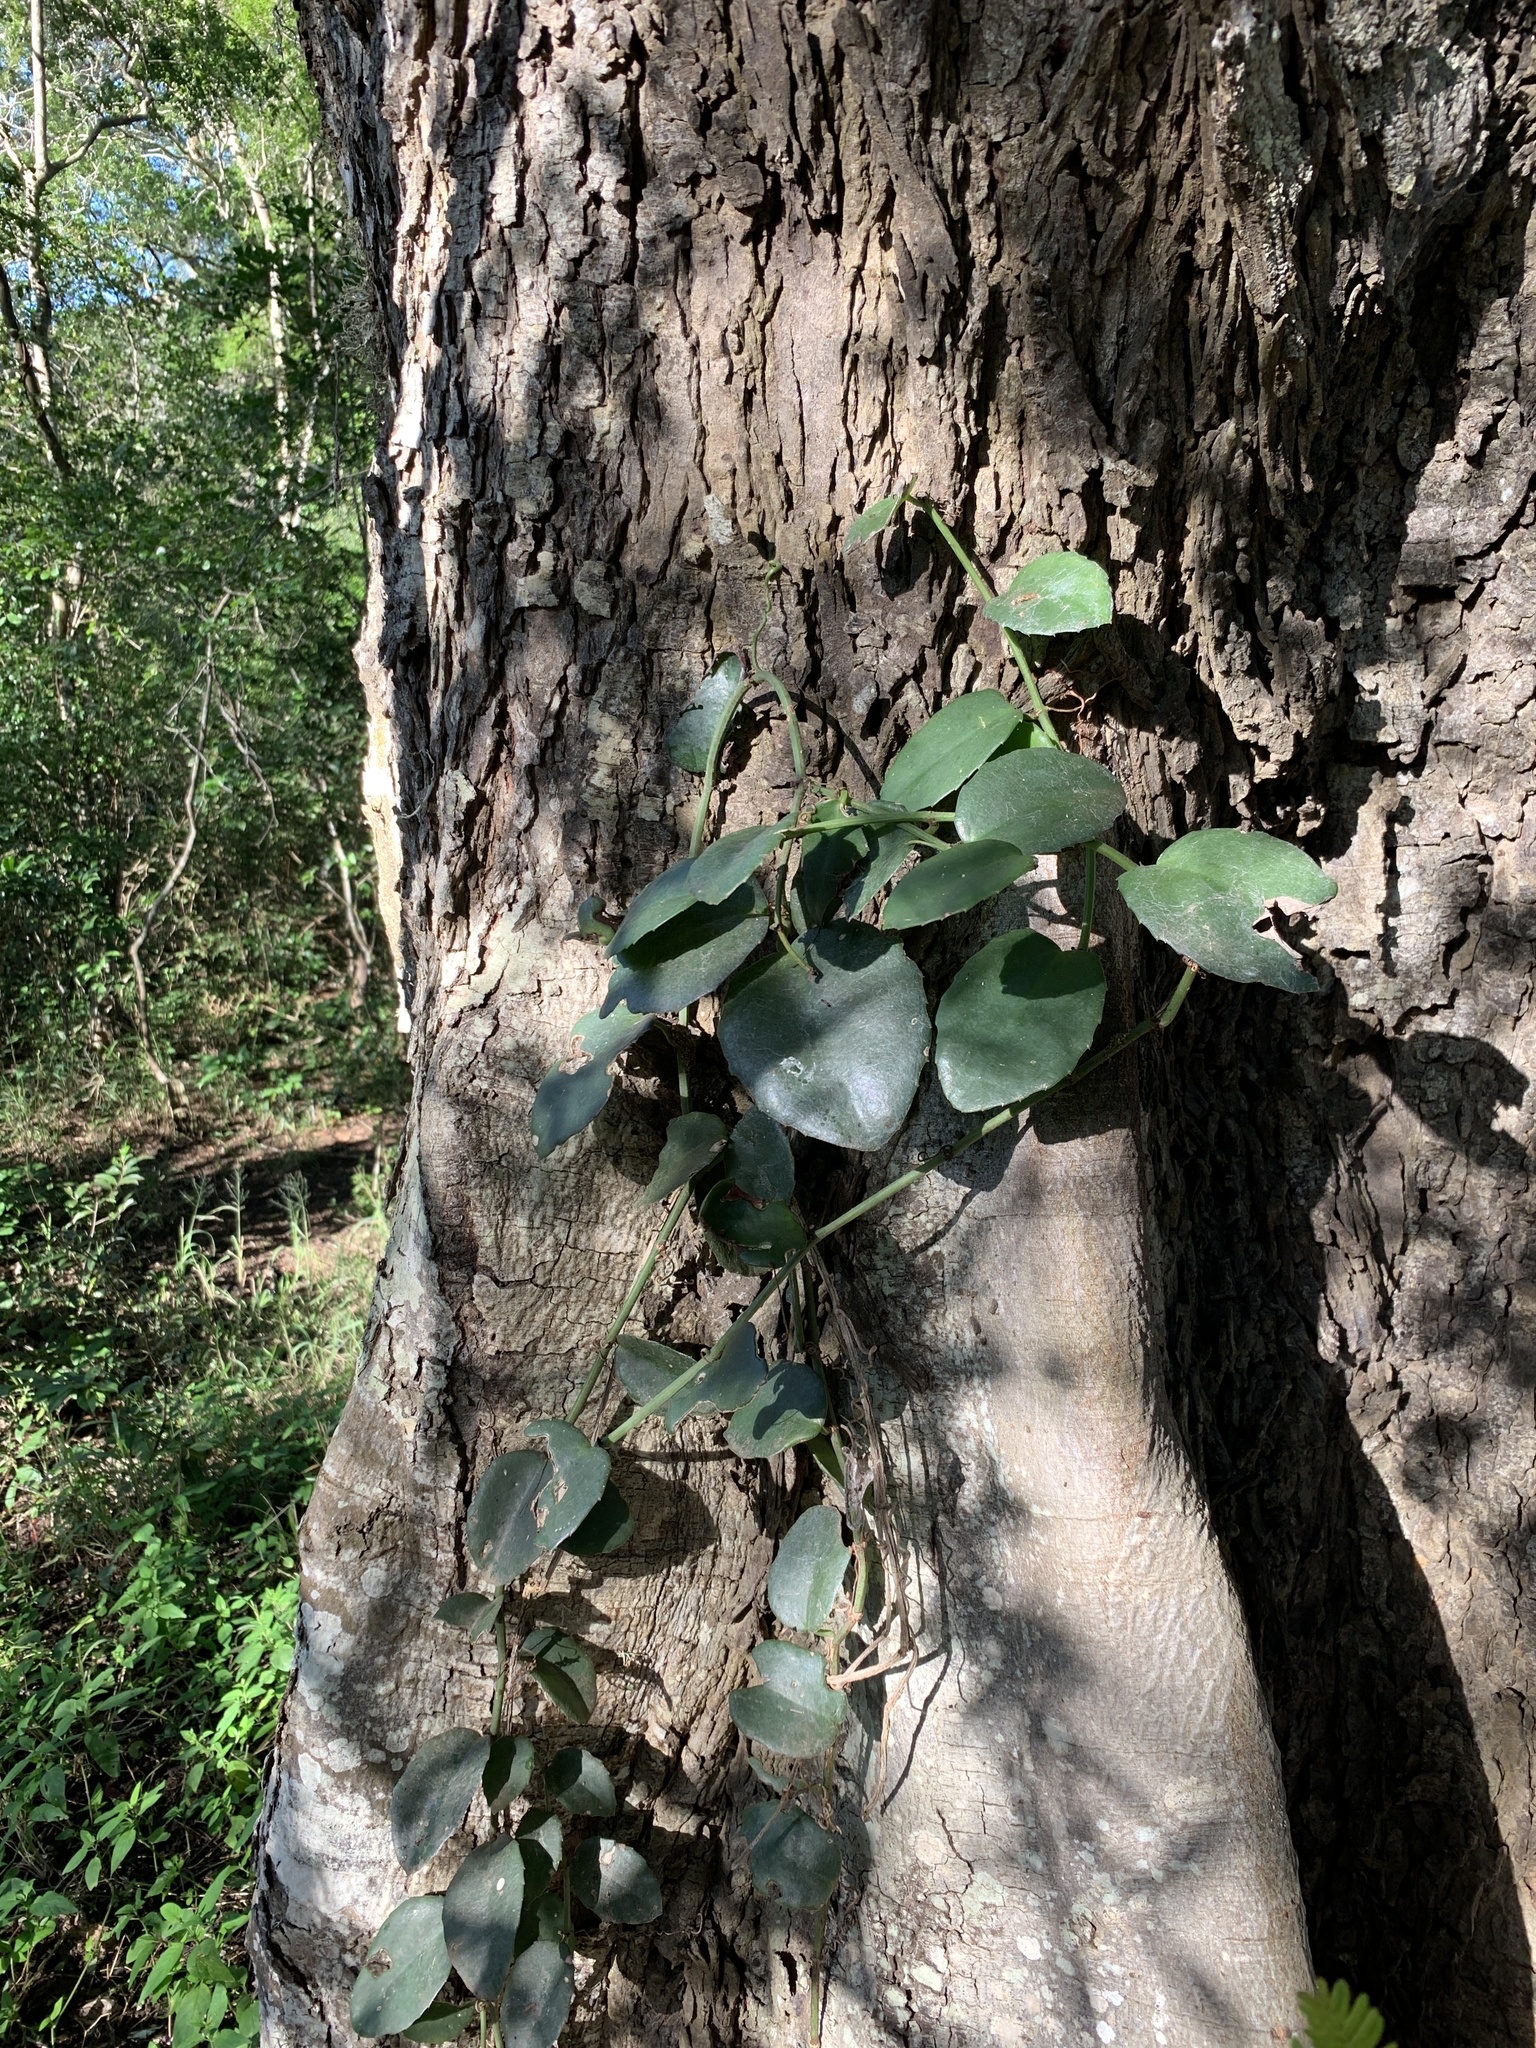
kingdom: Plantae
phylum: Tracheophyta
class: Magnoliopsida
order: Vitales
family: Vitaceae
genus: Cissus
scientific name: Cissus rotundifolia
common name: Arabian wax cissus
